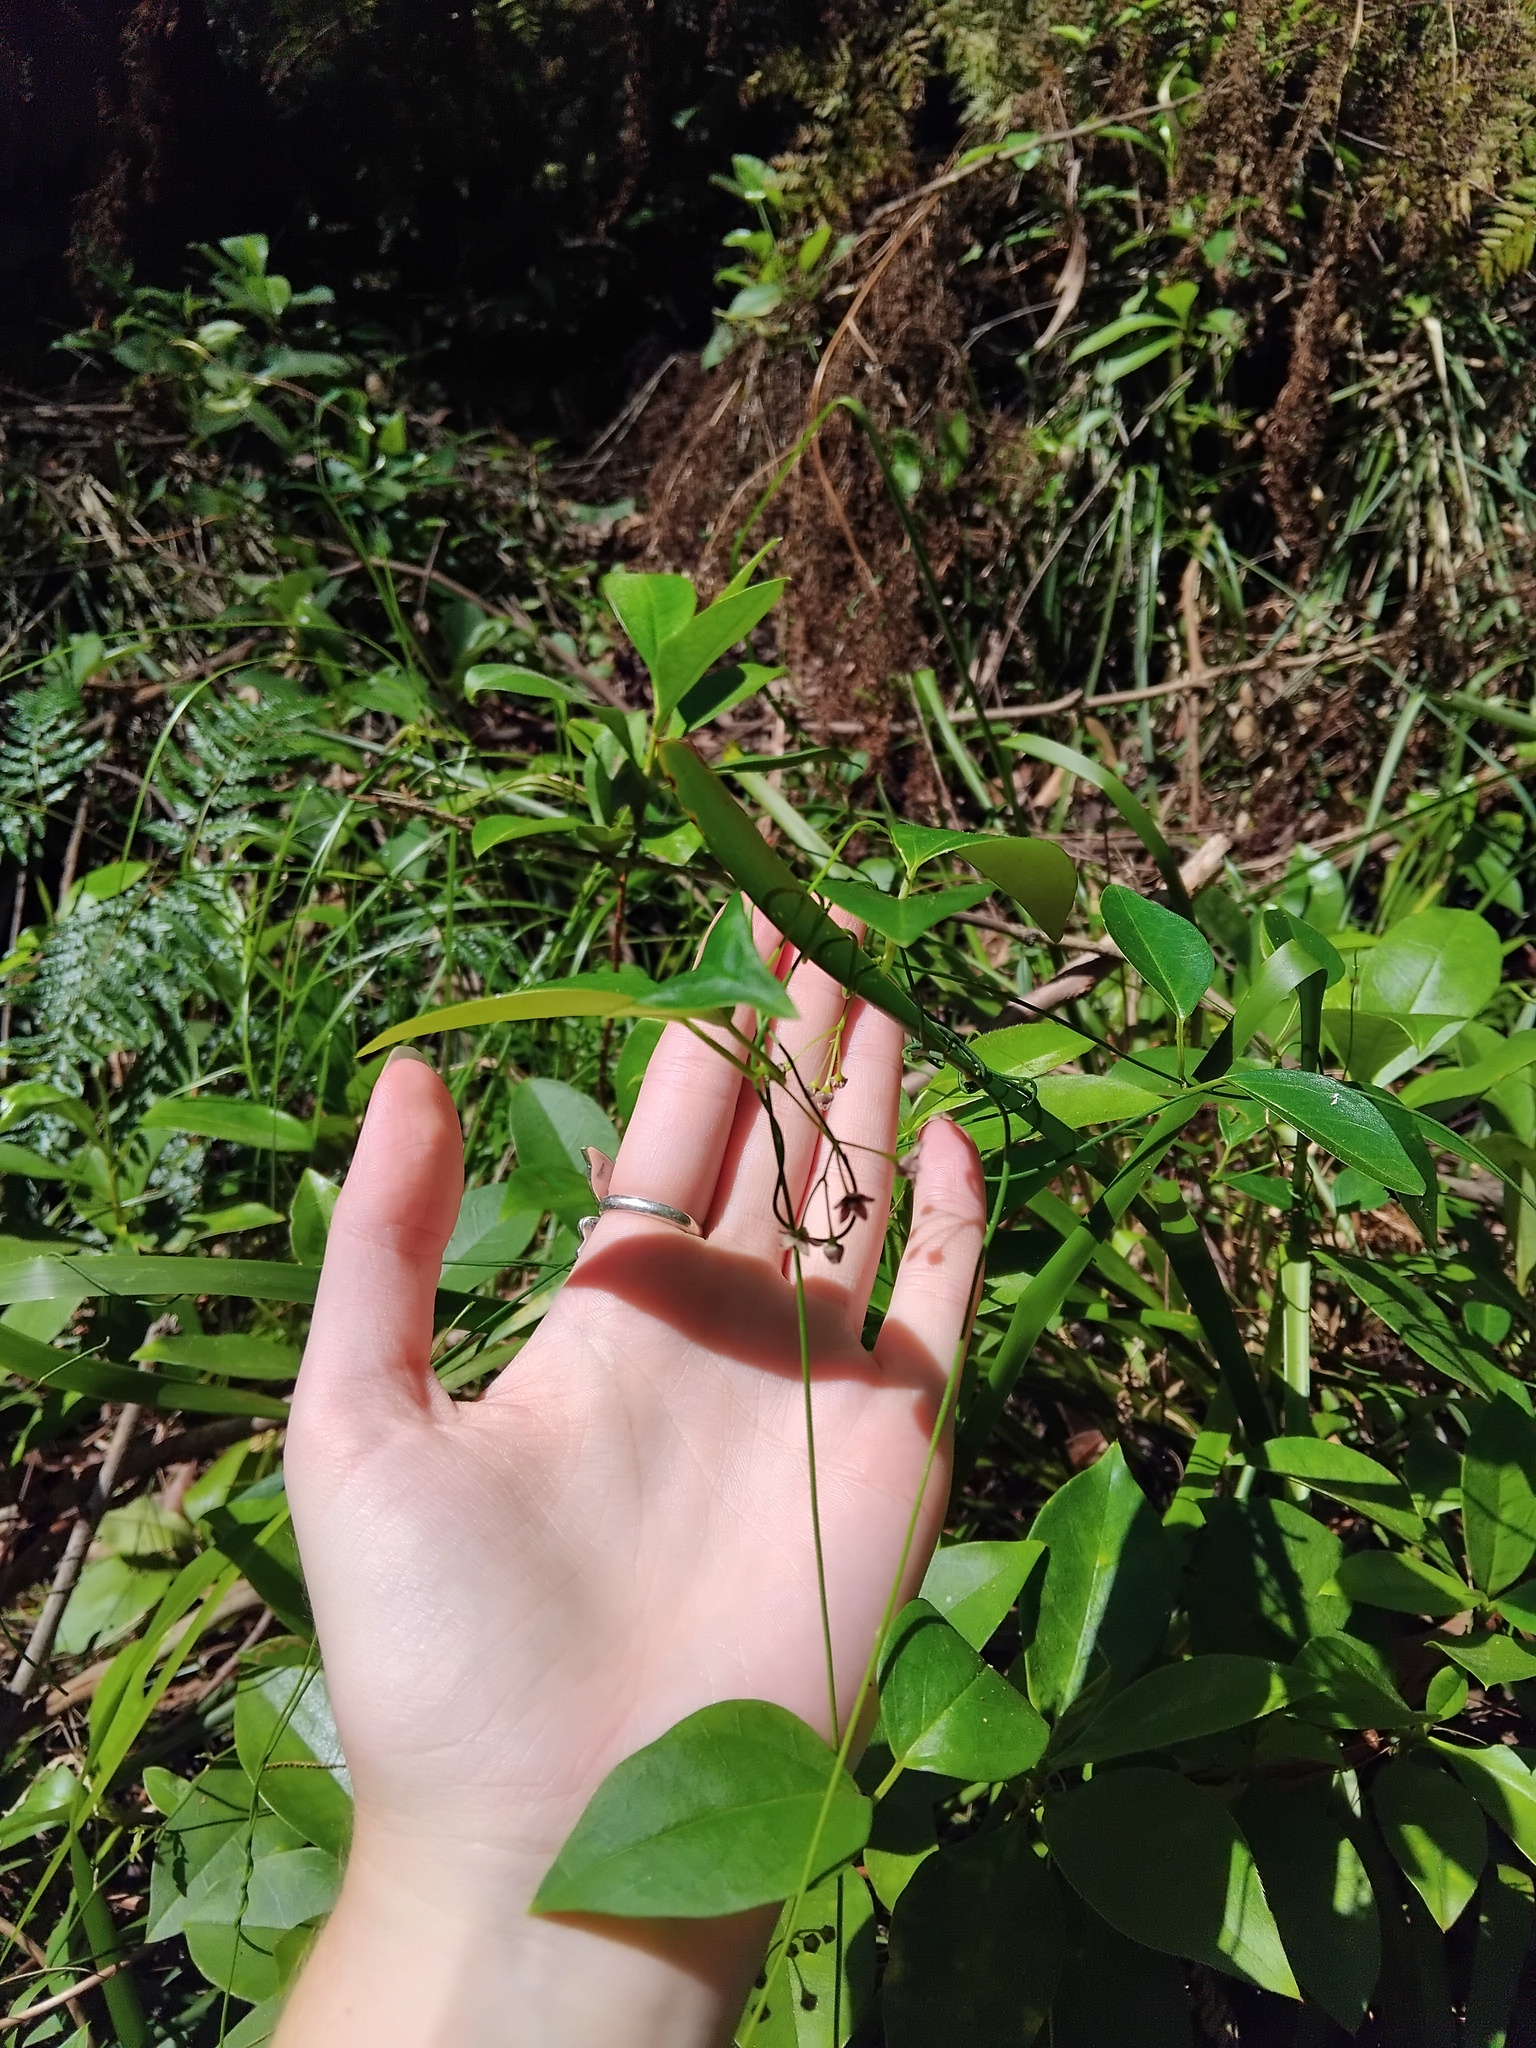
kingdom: Plantae
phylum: Tracheophyta
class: Magnoliopsida
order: Gentianales
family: Apocynaceae
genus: Vincetoxicum
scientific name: Vincetoxicum barbatum
